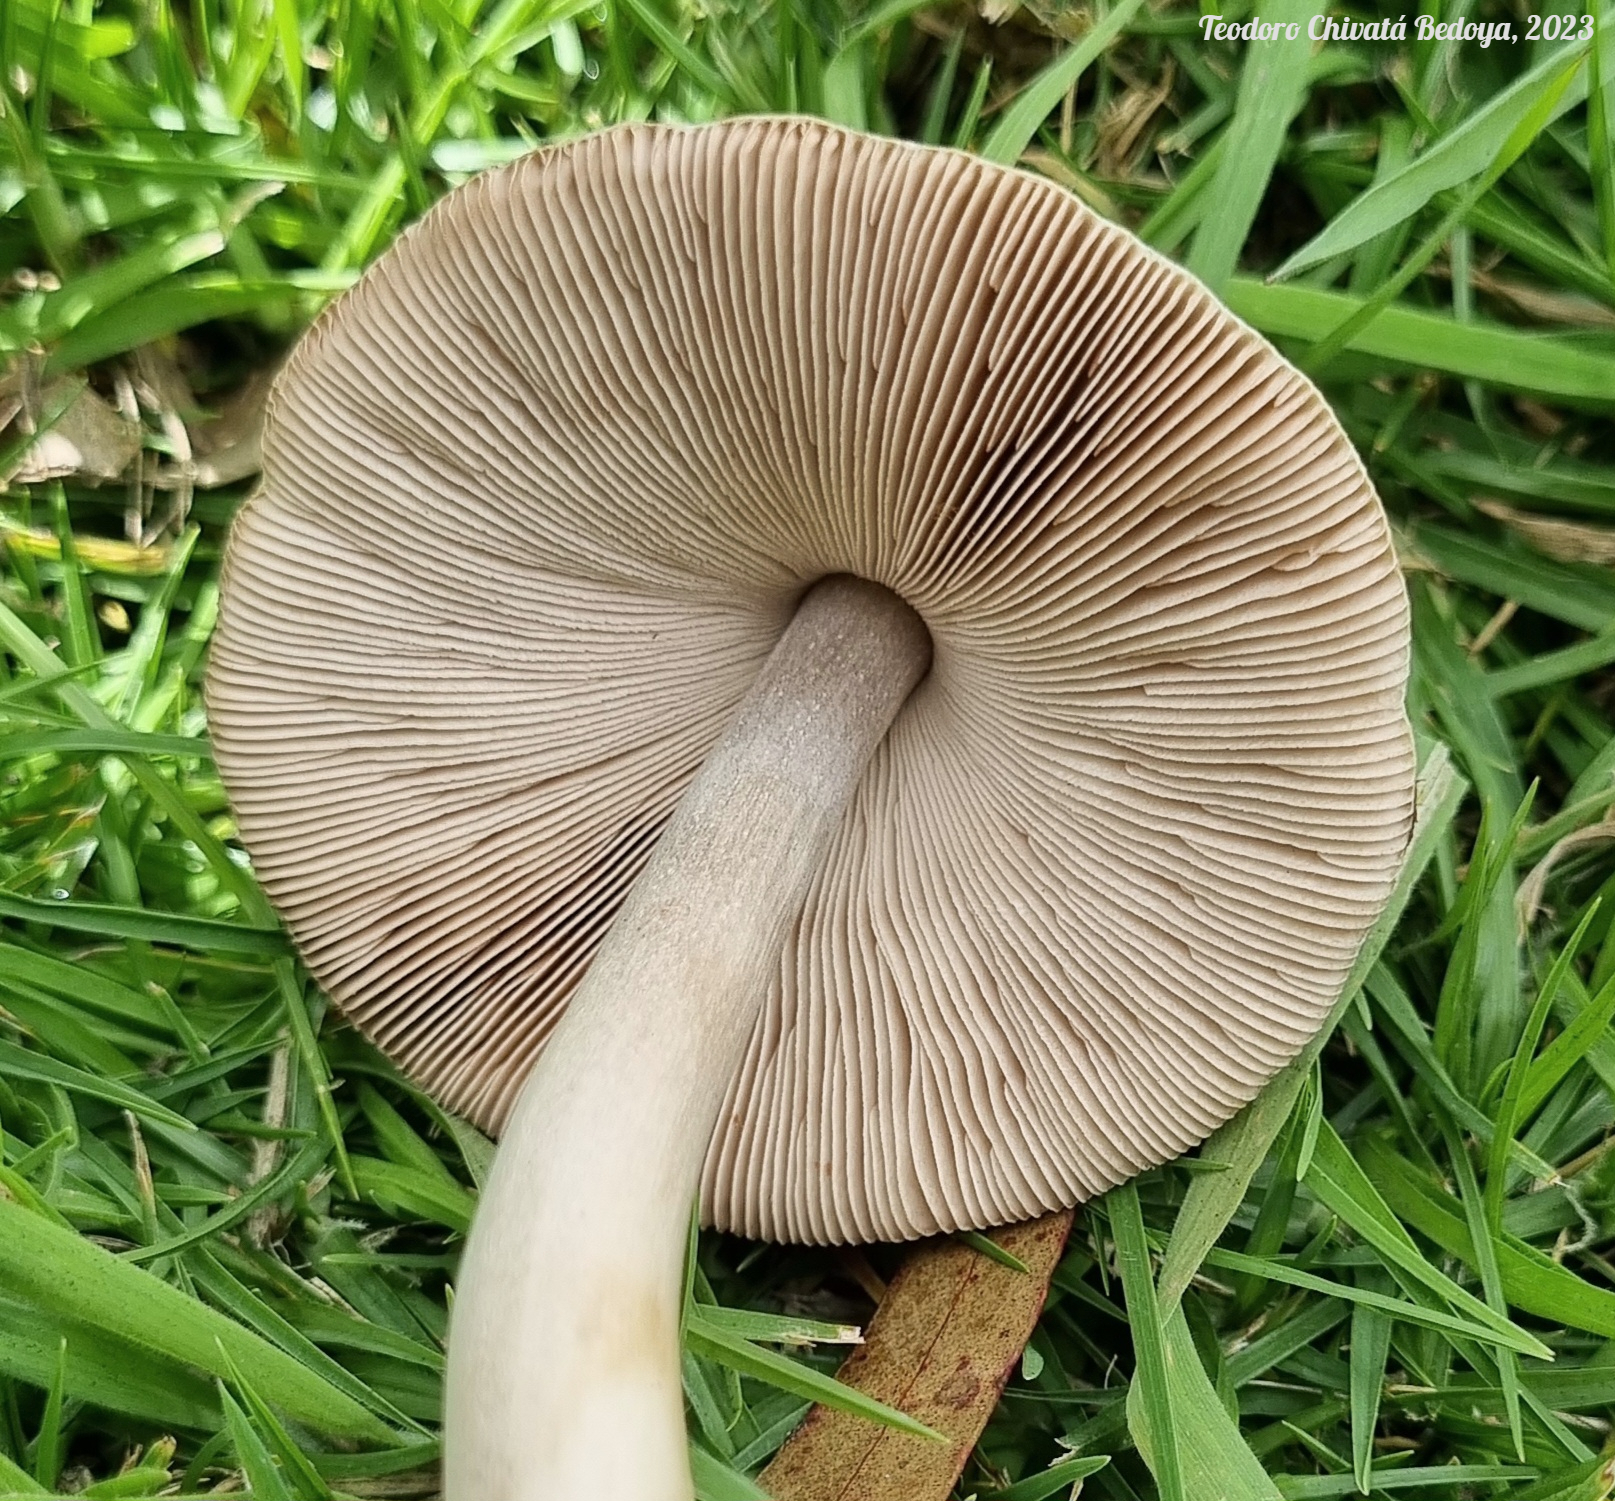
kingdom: Fungi
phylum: Basidiomycota
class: Agaricomycetes
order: Agaricales
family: Pluteaceae
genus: Volvopluteus
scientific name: Volvopluteus gloiocephalus
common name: Stubble rosegill
